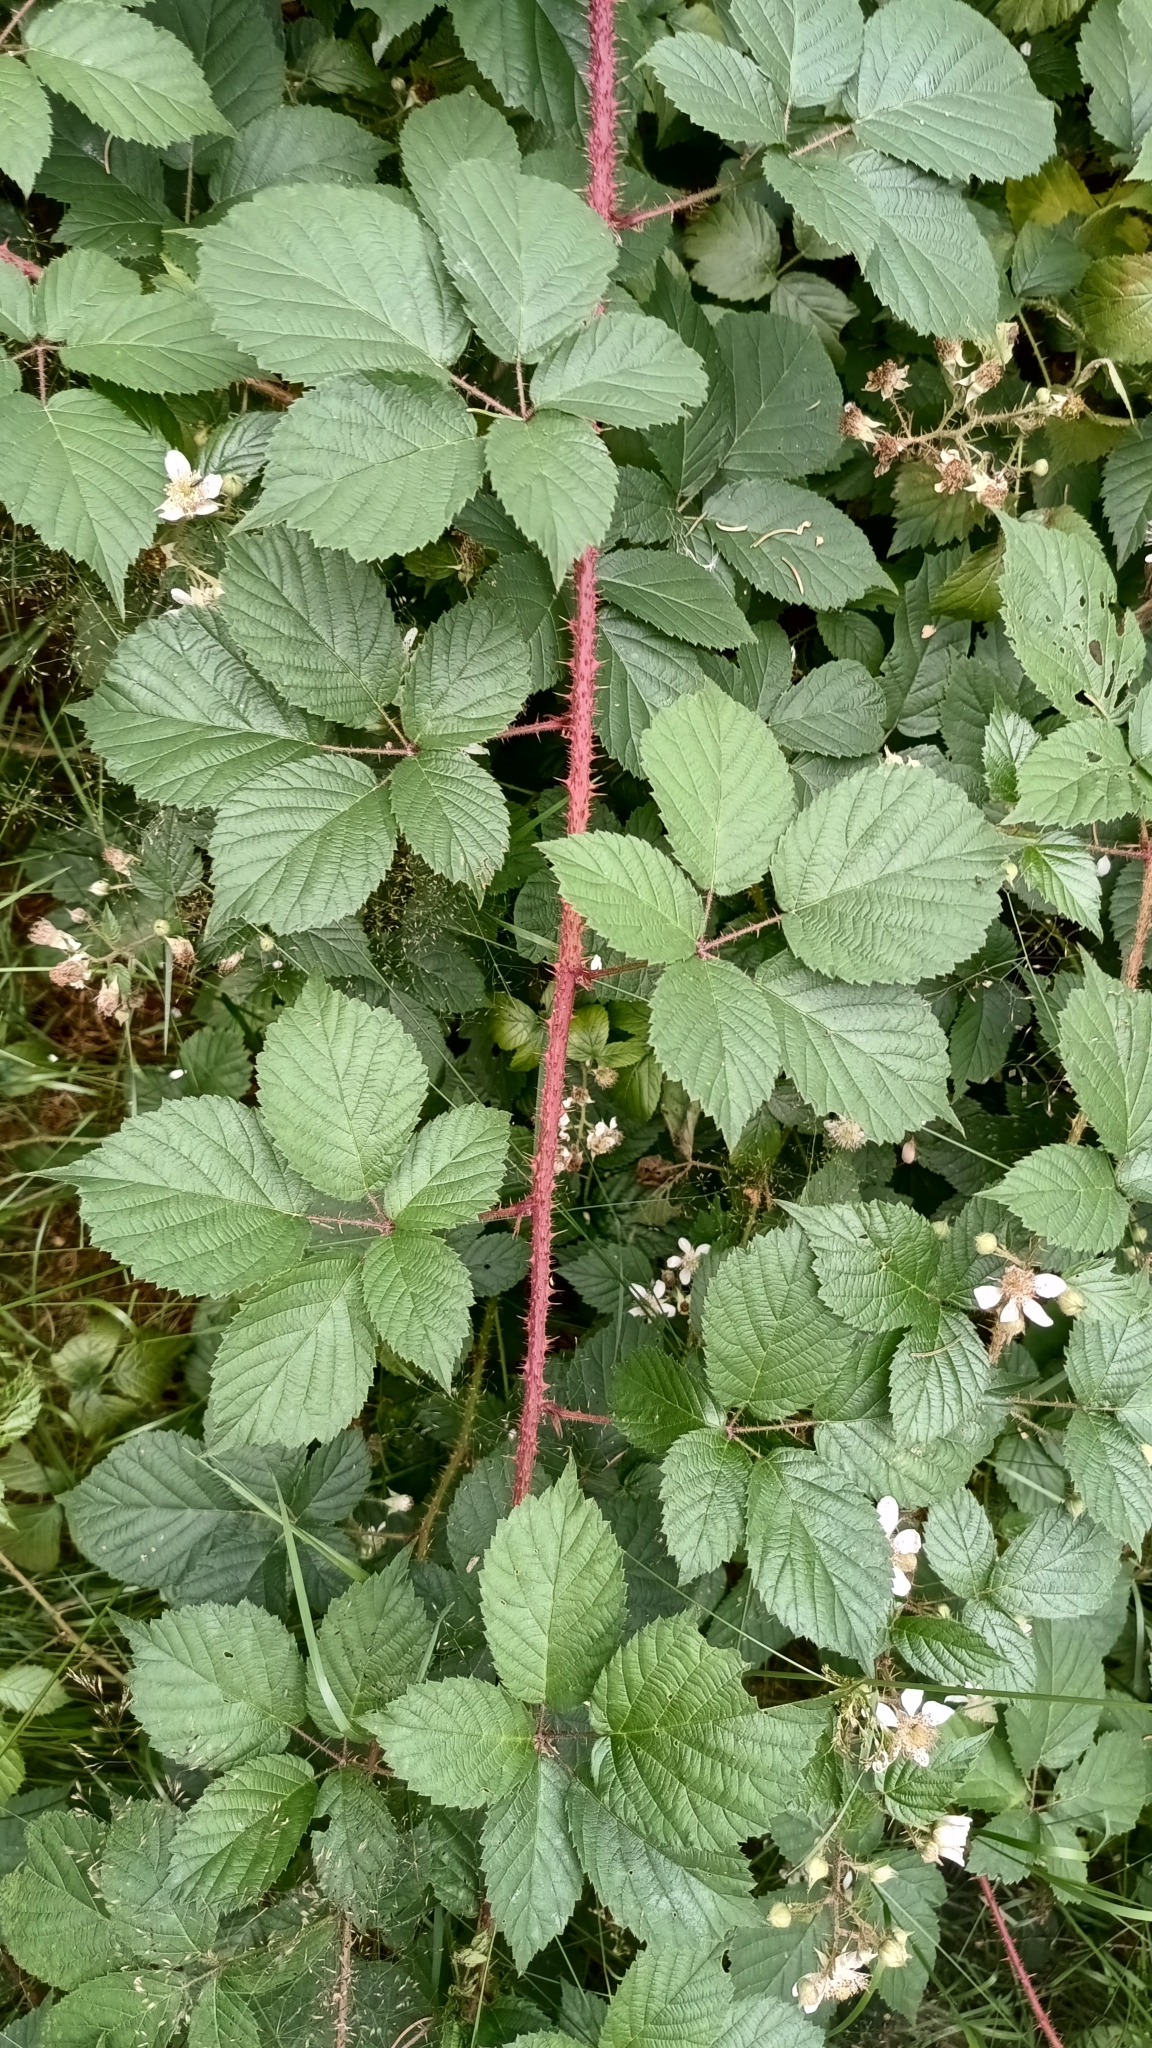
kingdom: Plantae
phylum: Tracheophyta
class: Magnoliopsida
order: Rosales
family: Rosaceae
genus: Rubus
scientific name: Rubus koehleri
